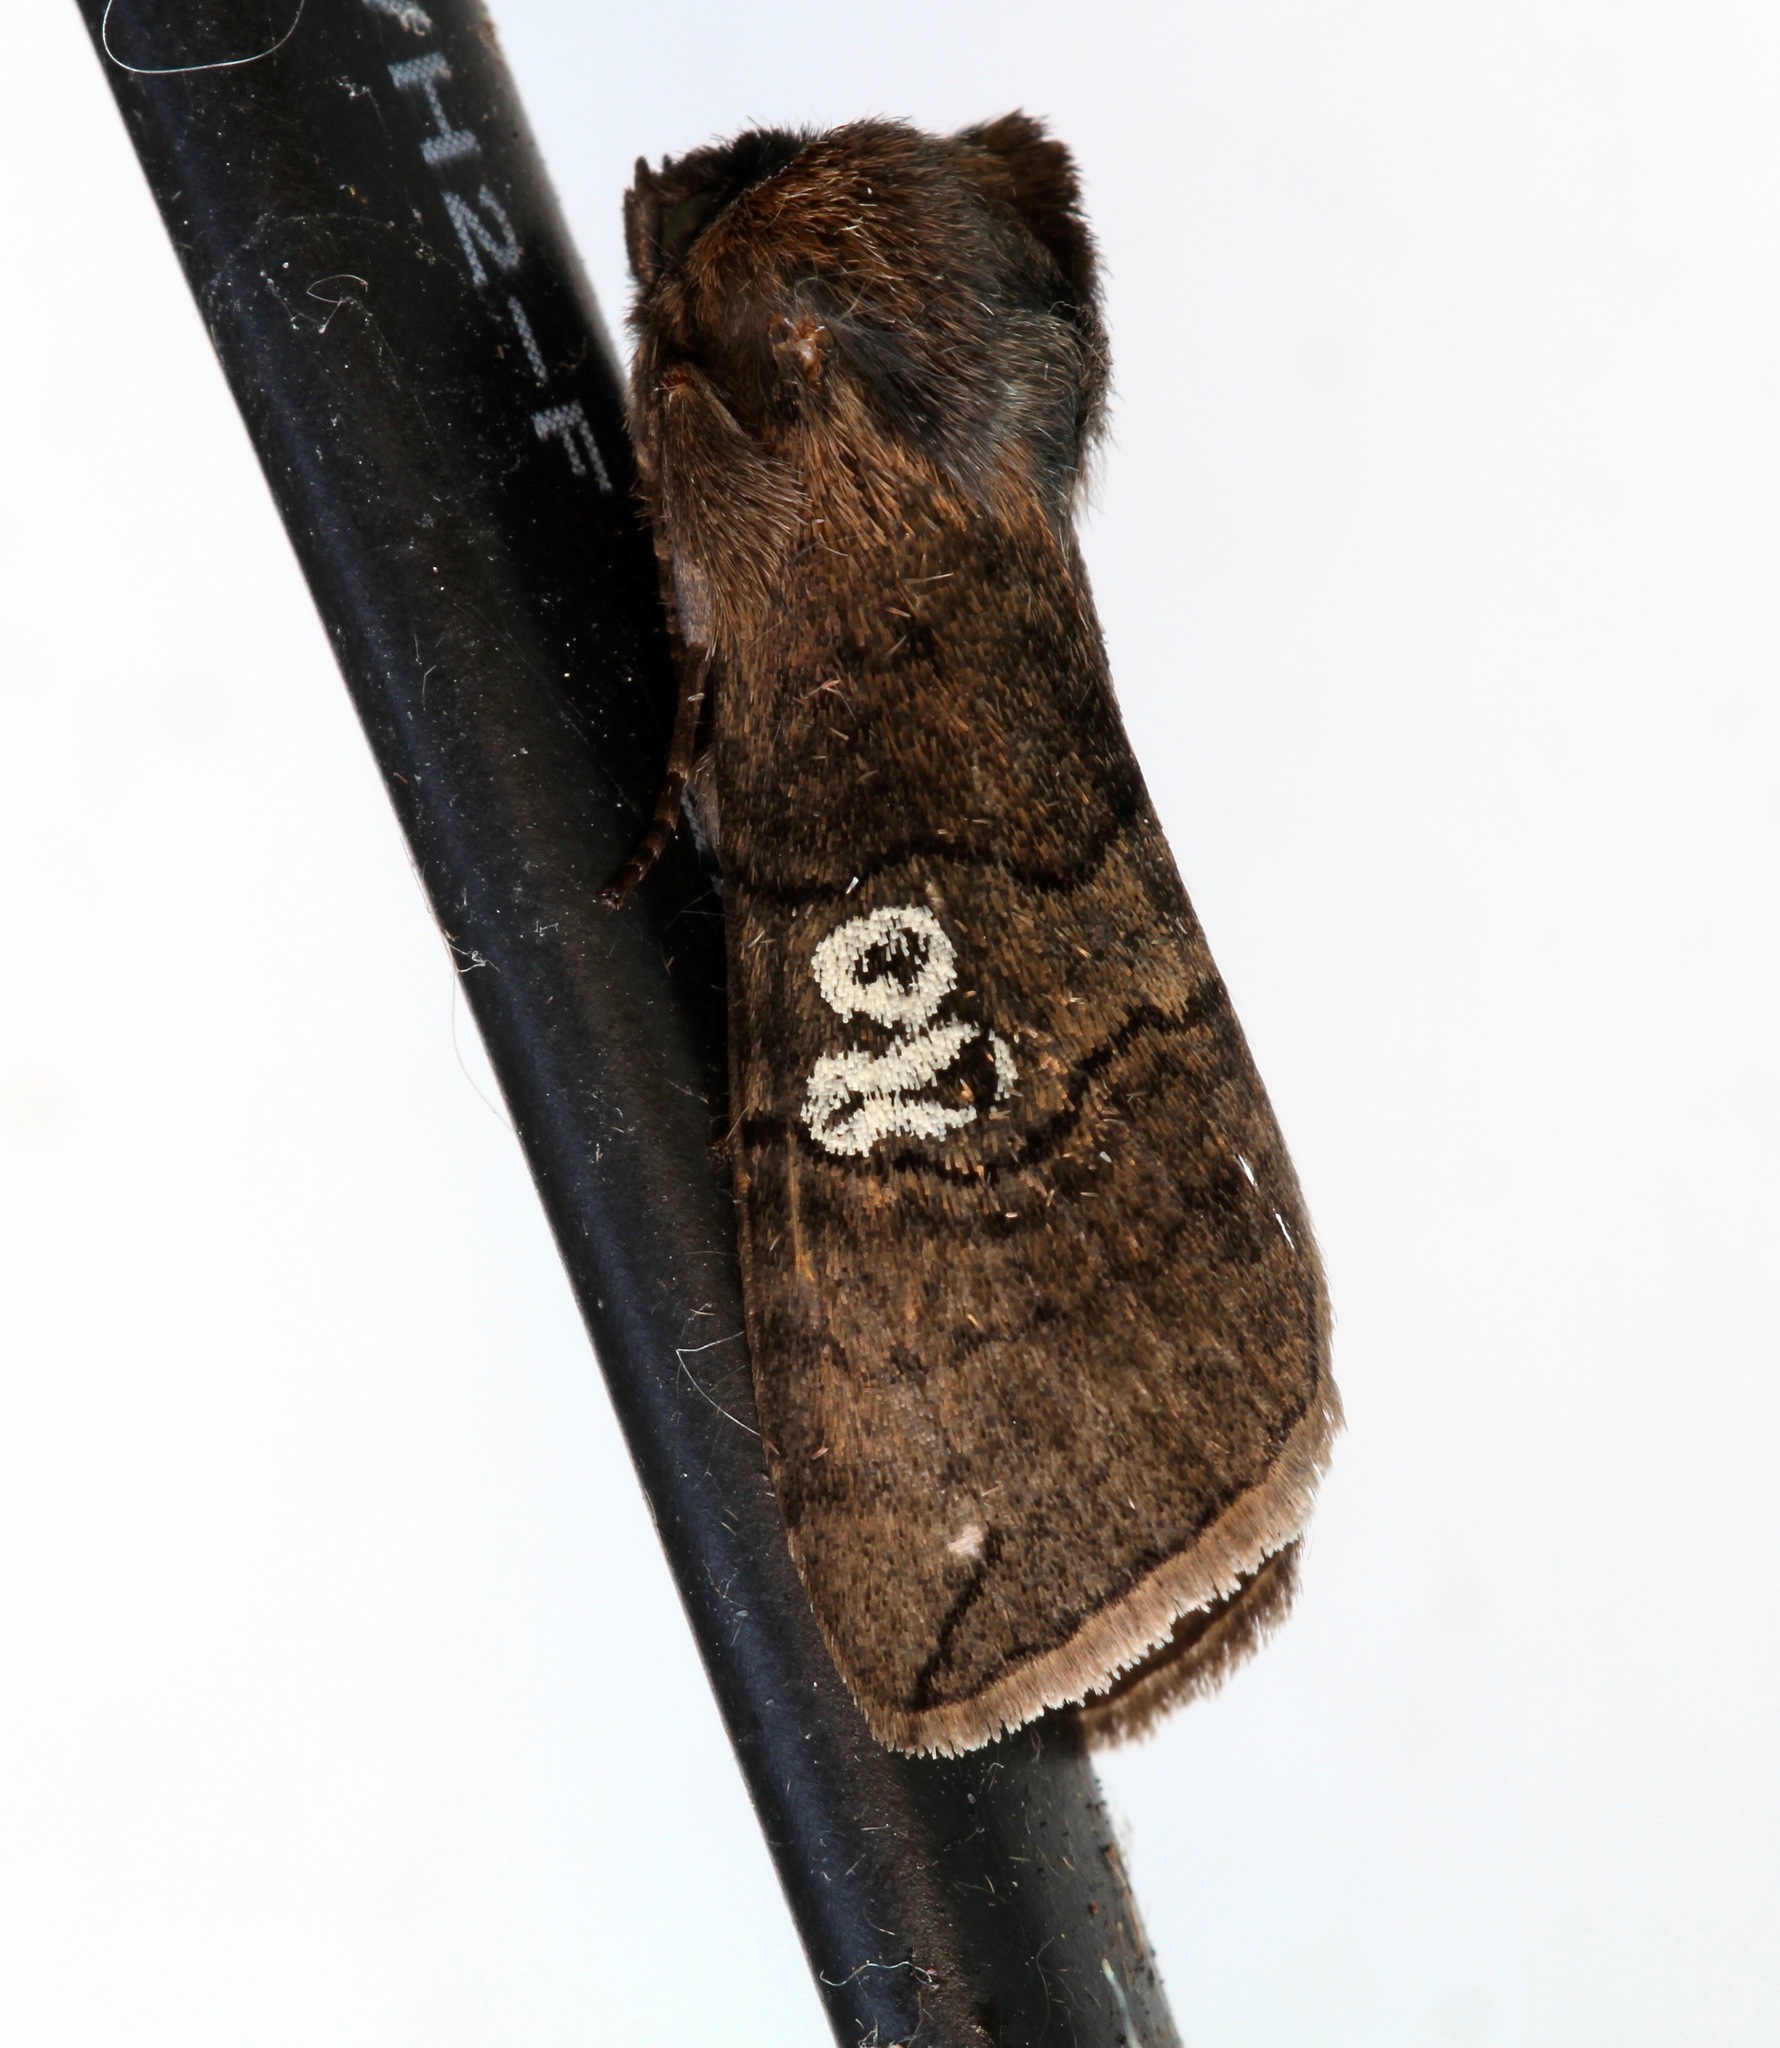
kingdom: Animalia
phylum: Arthropoda
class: Insecta
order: Lepidoptera
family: Drepanidae
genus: Tethea
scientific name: Tethea ocularis
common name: Figure of eighty
